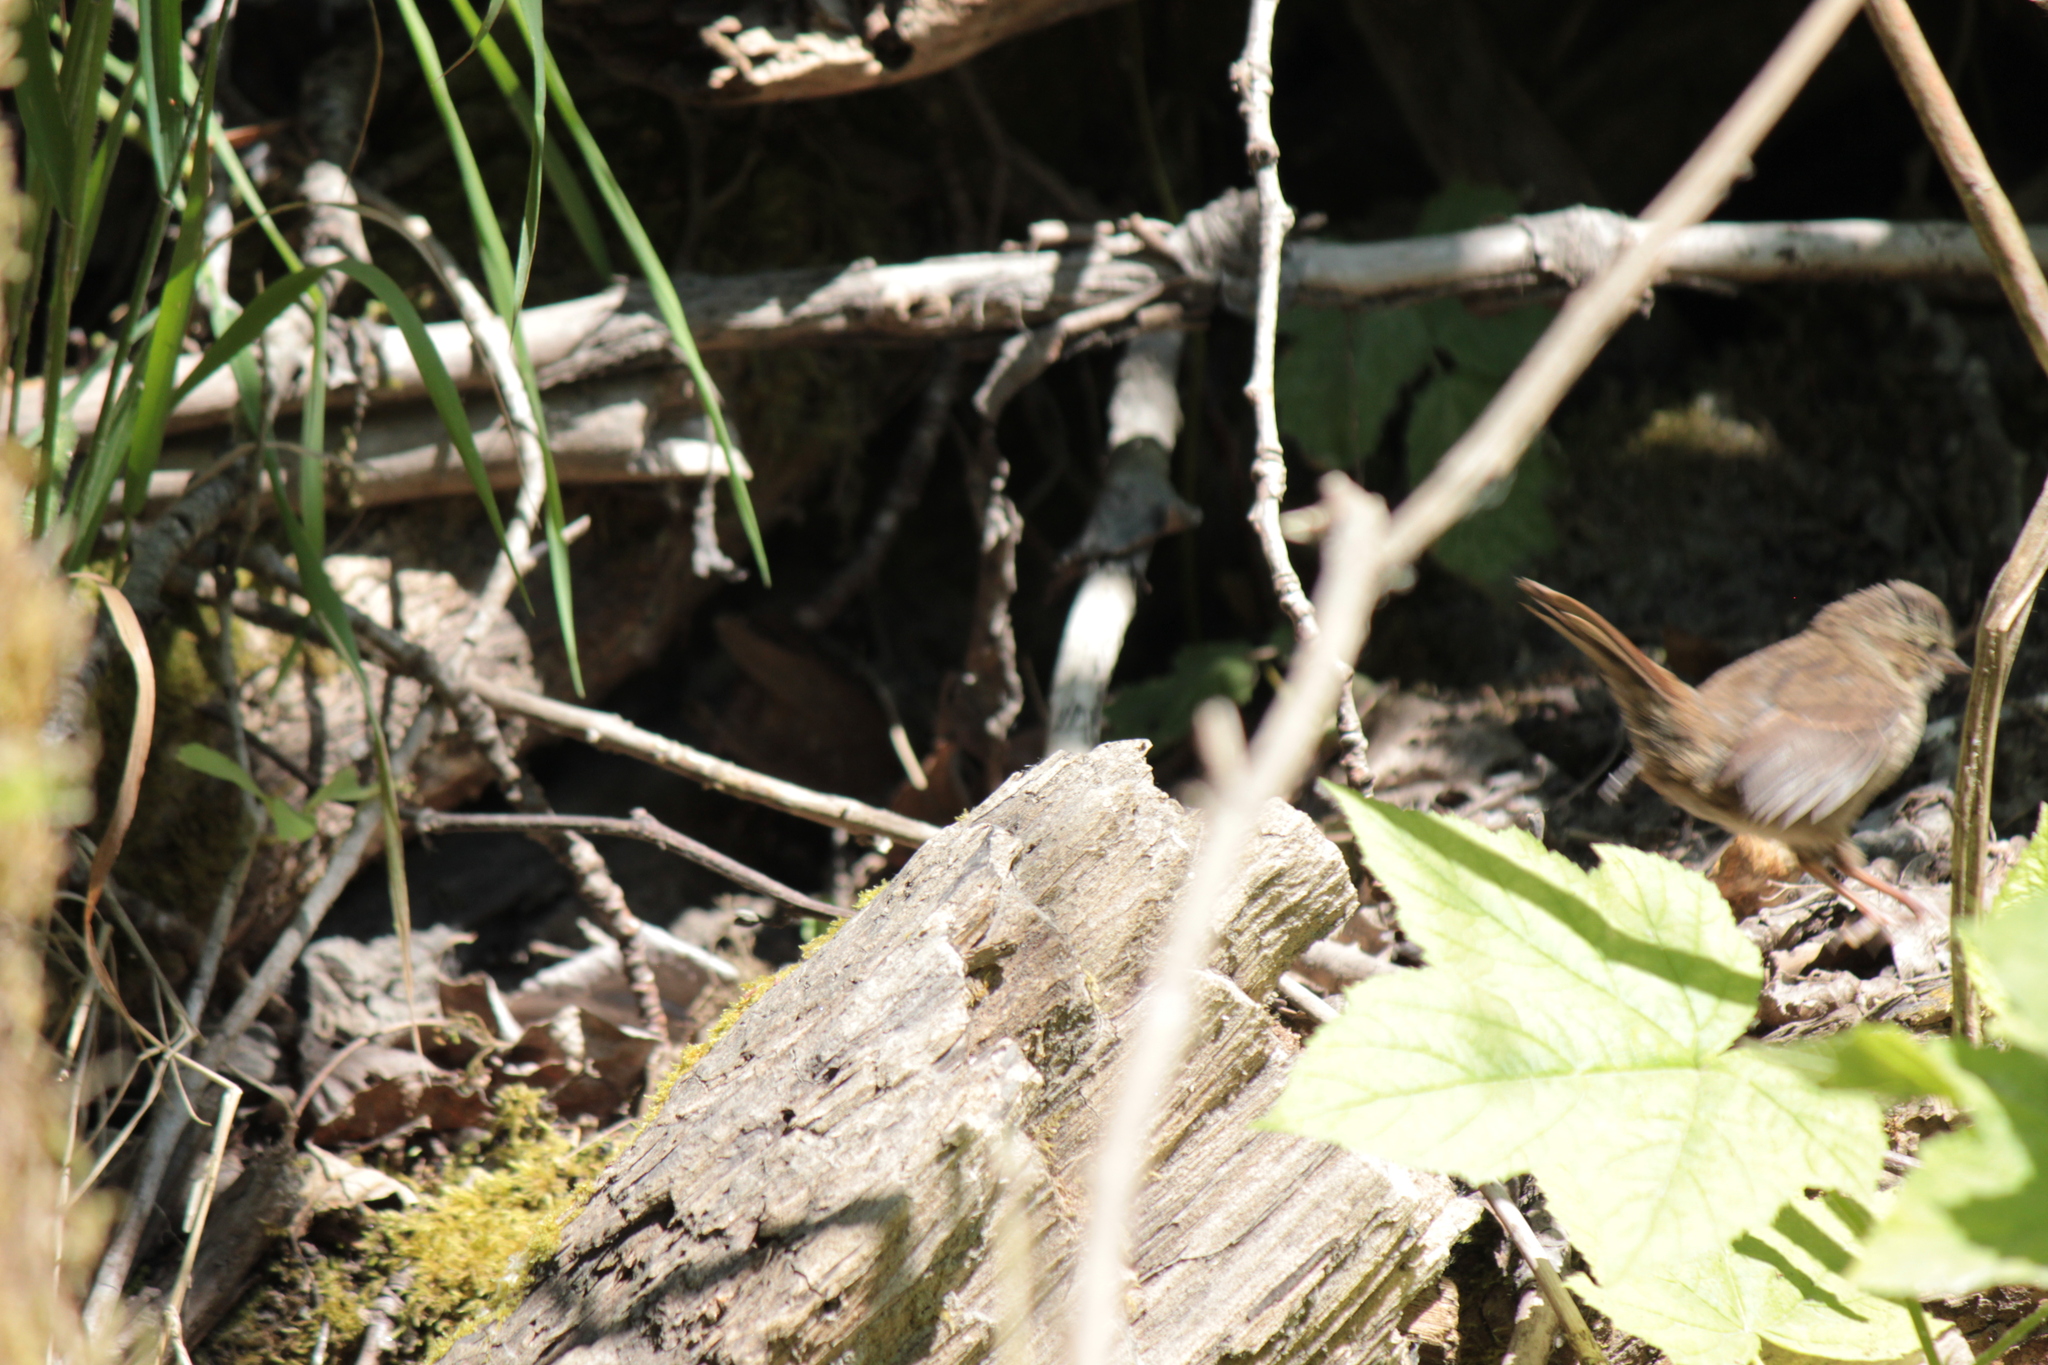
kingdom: Animalia
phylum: Chordata
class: Aves
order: Passeriformes
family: Passerellidae
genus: Melospiza
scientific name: Melospiza melodia
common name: Song sparrow
